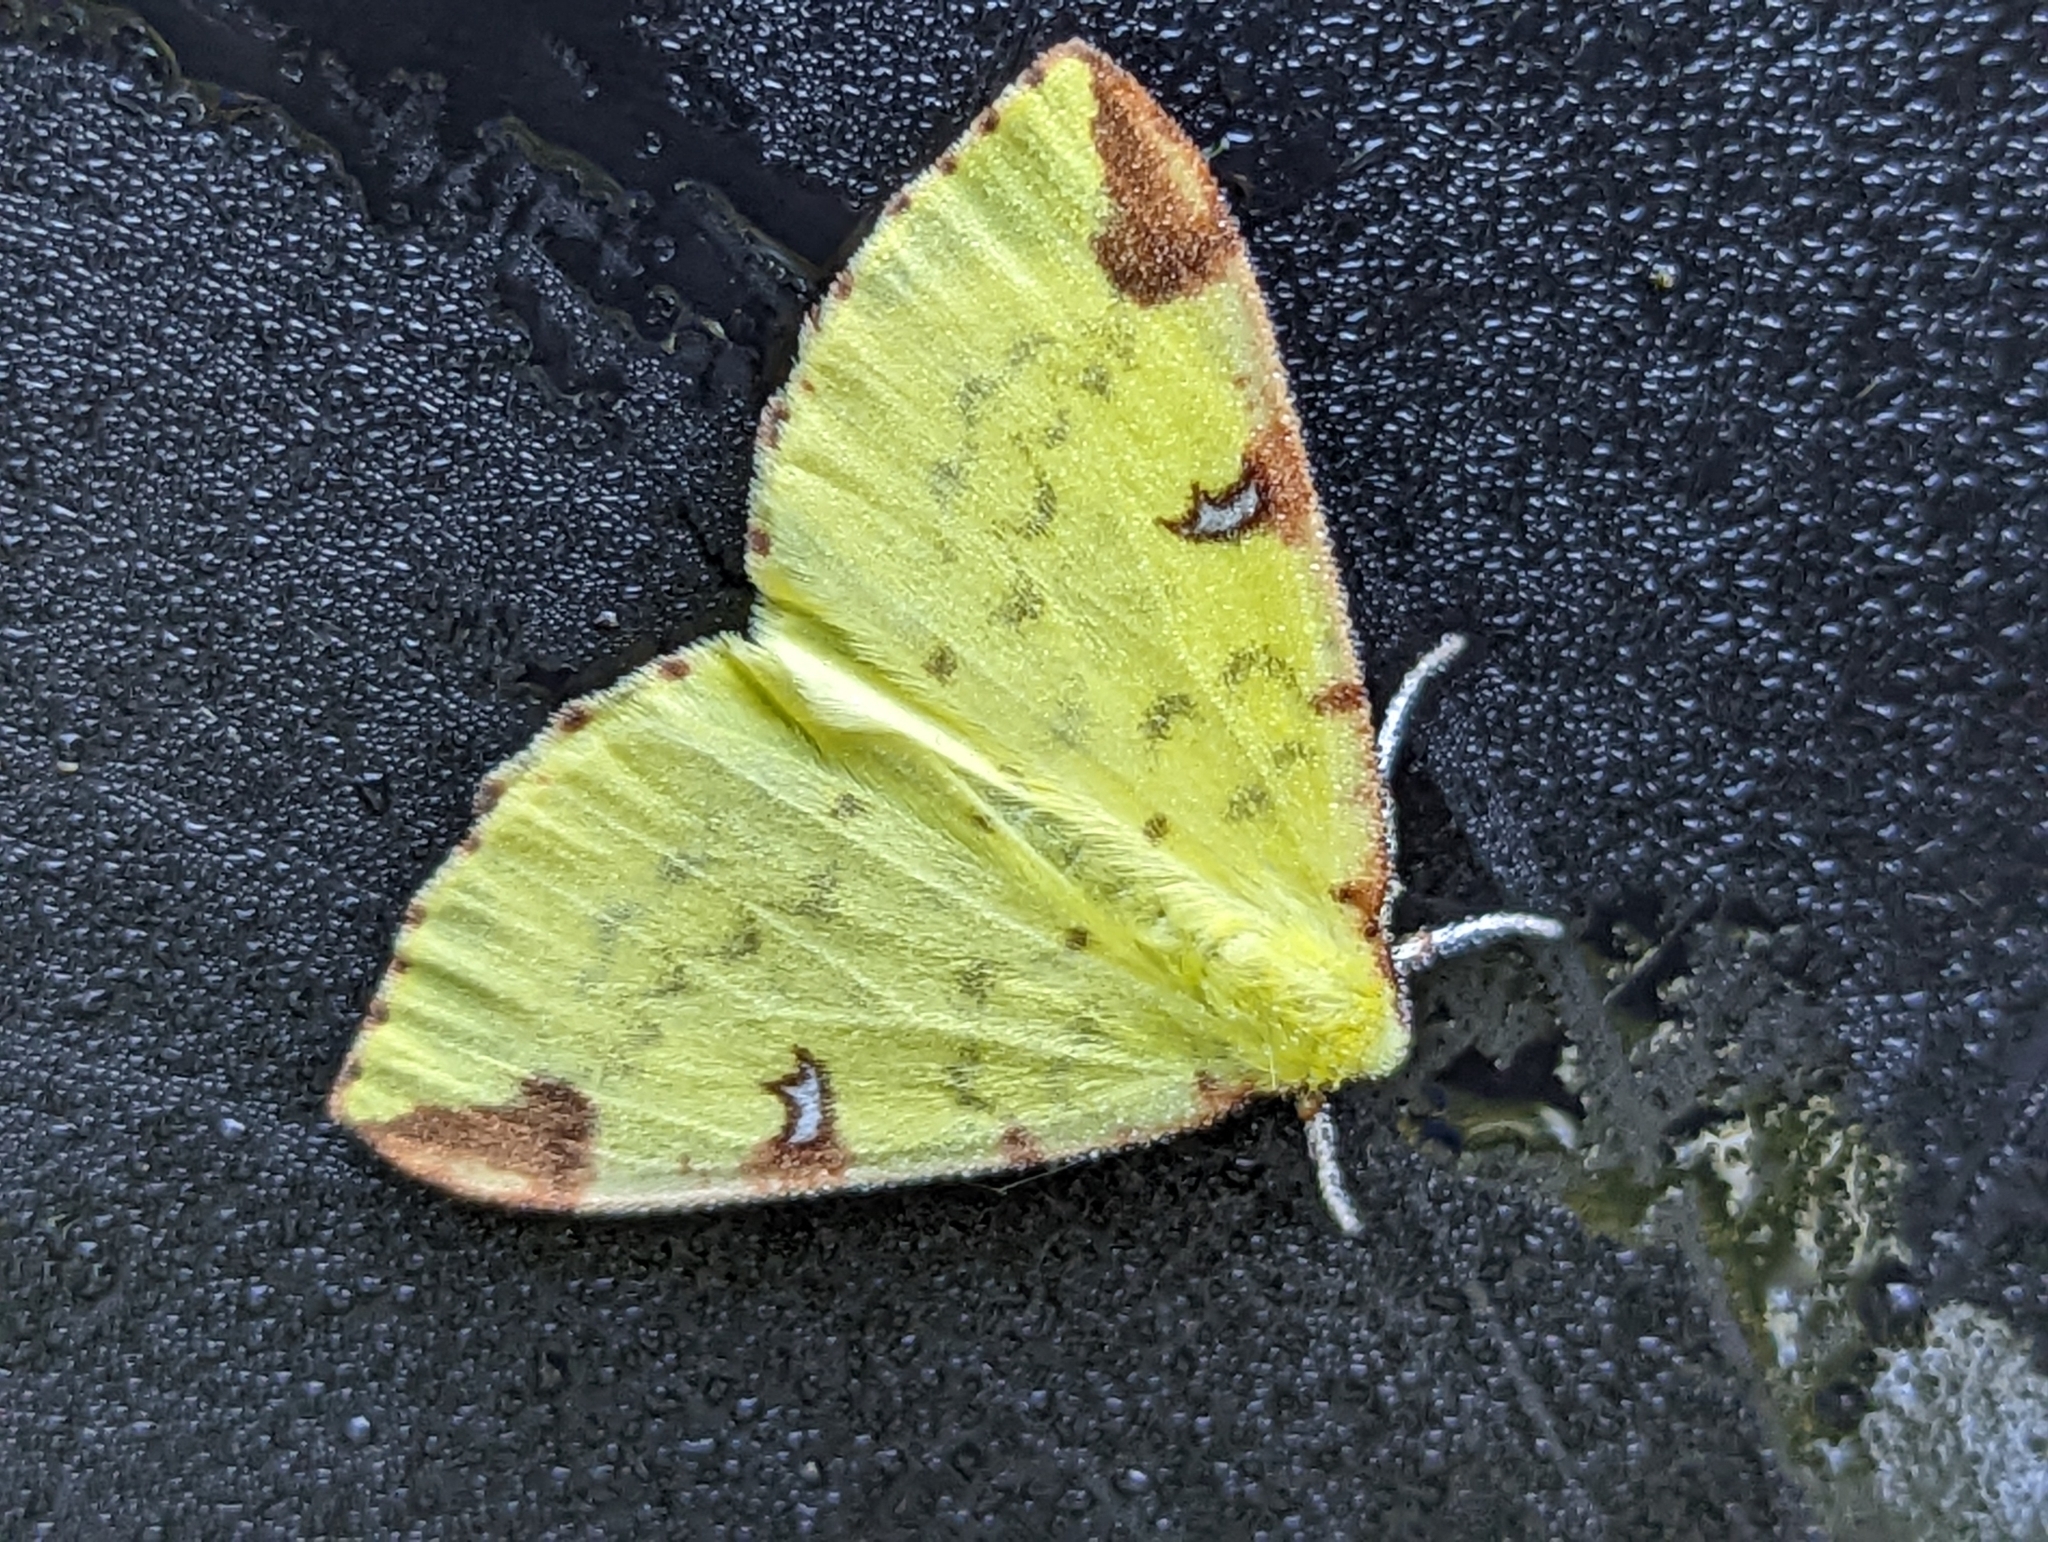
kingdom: Animalia
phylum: Arthropoda
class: Insecta
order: Lepidoptera
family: Geometridae
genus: Opisthograptis
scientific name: Opisthograptis luteolata
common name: Brimstone moth
